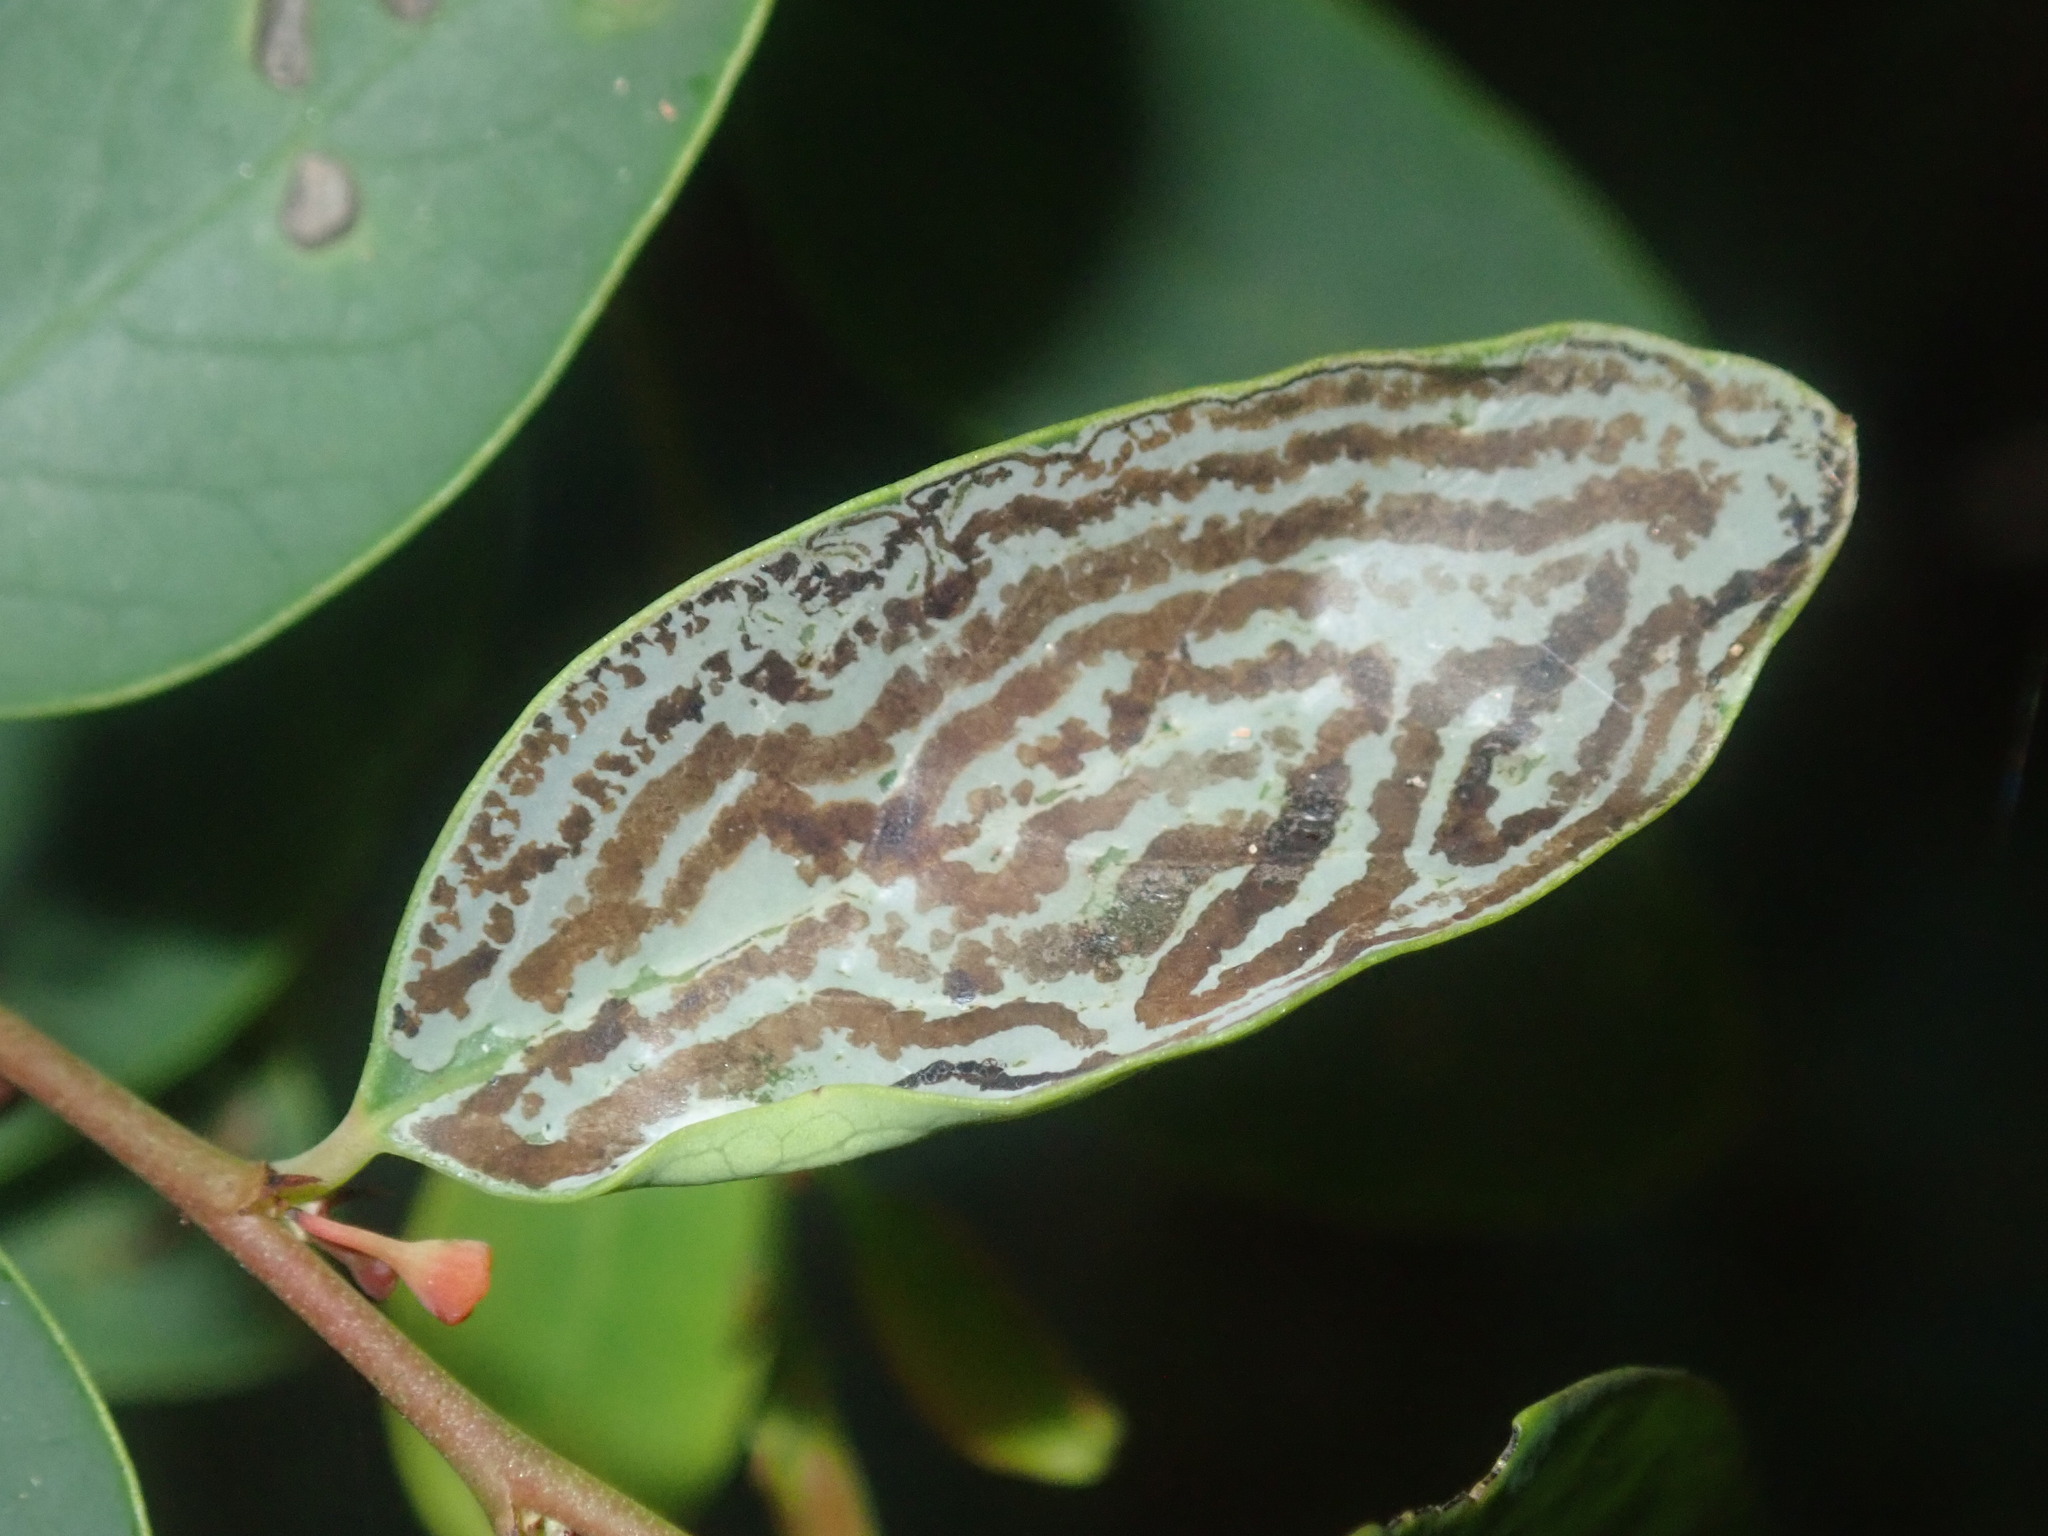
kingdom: Animalia
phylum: Arthropoda
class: Insecta
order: Lepidoptera
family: Gracillariidae
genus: Phyllocnistis
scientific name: Phyllocnistis diaugella
